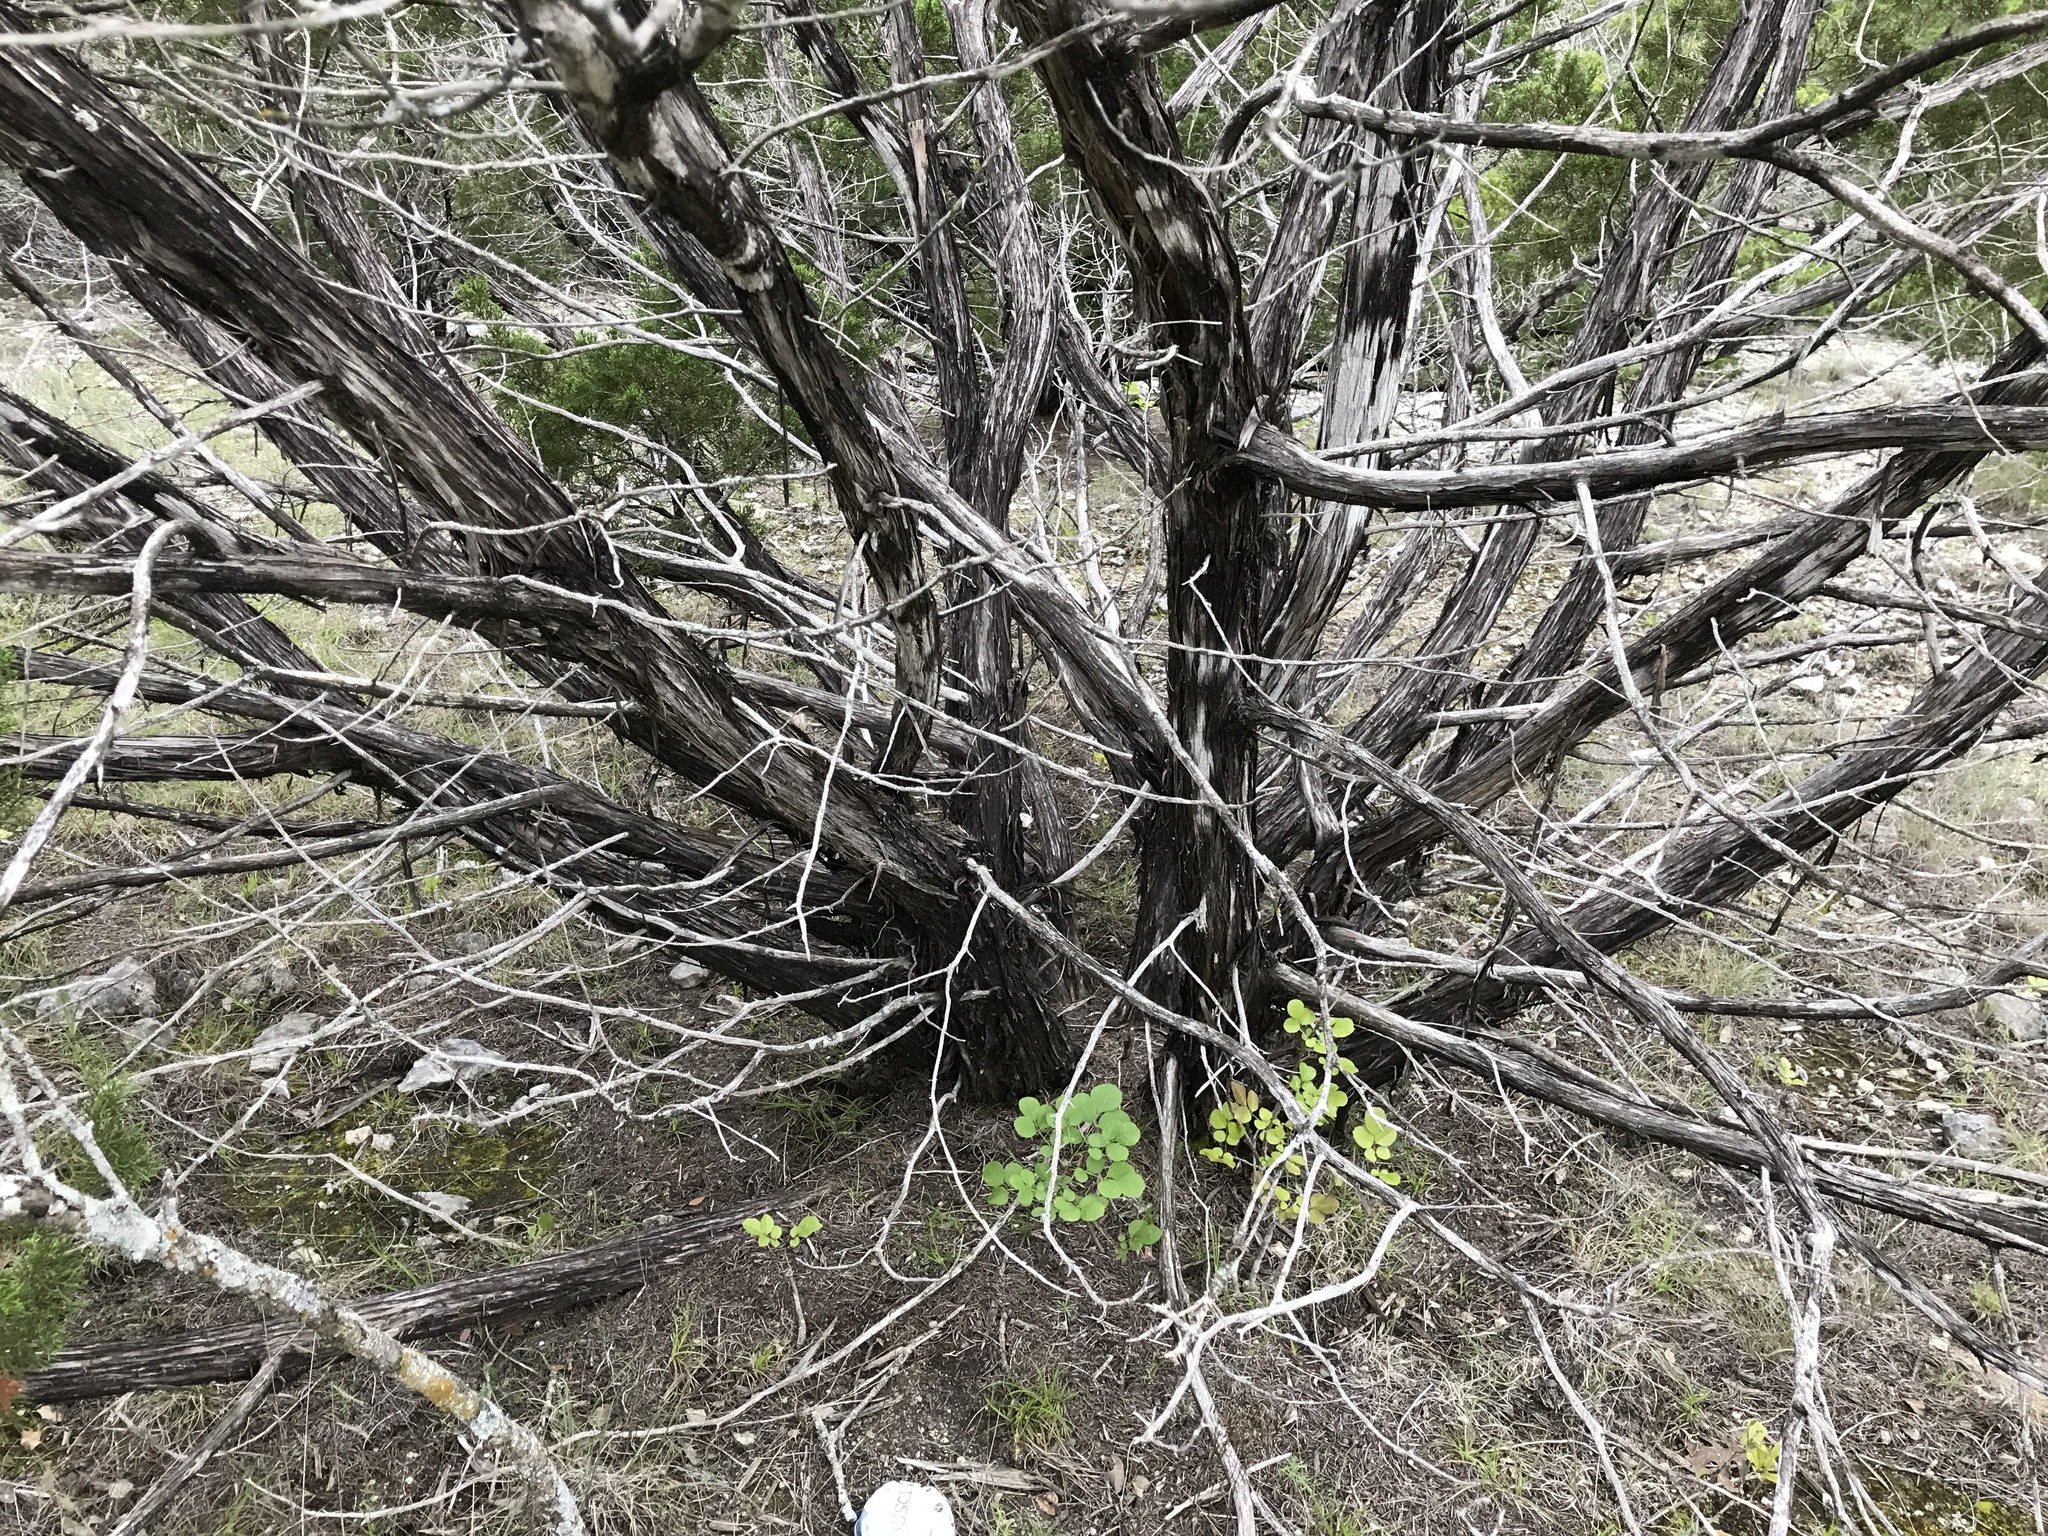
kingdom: Plantae
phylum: Tracheophyta
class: Pinopsida
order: Pinales
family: Cupressaceae
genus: Juniperus
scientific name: Juniperus ashei
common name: Mexican juniper
